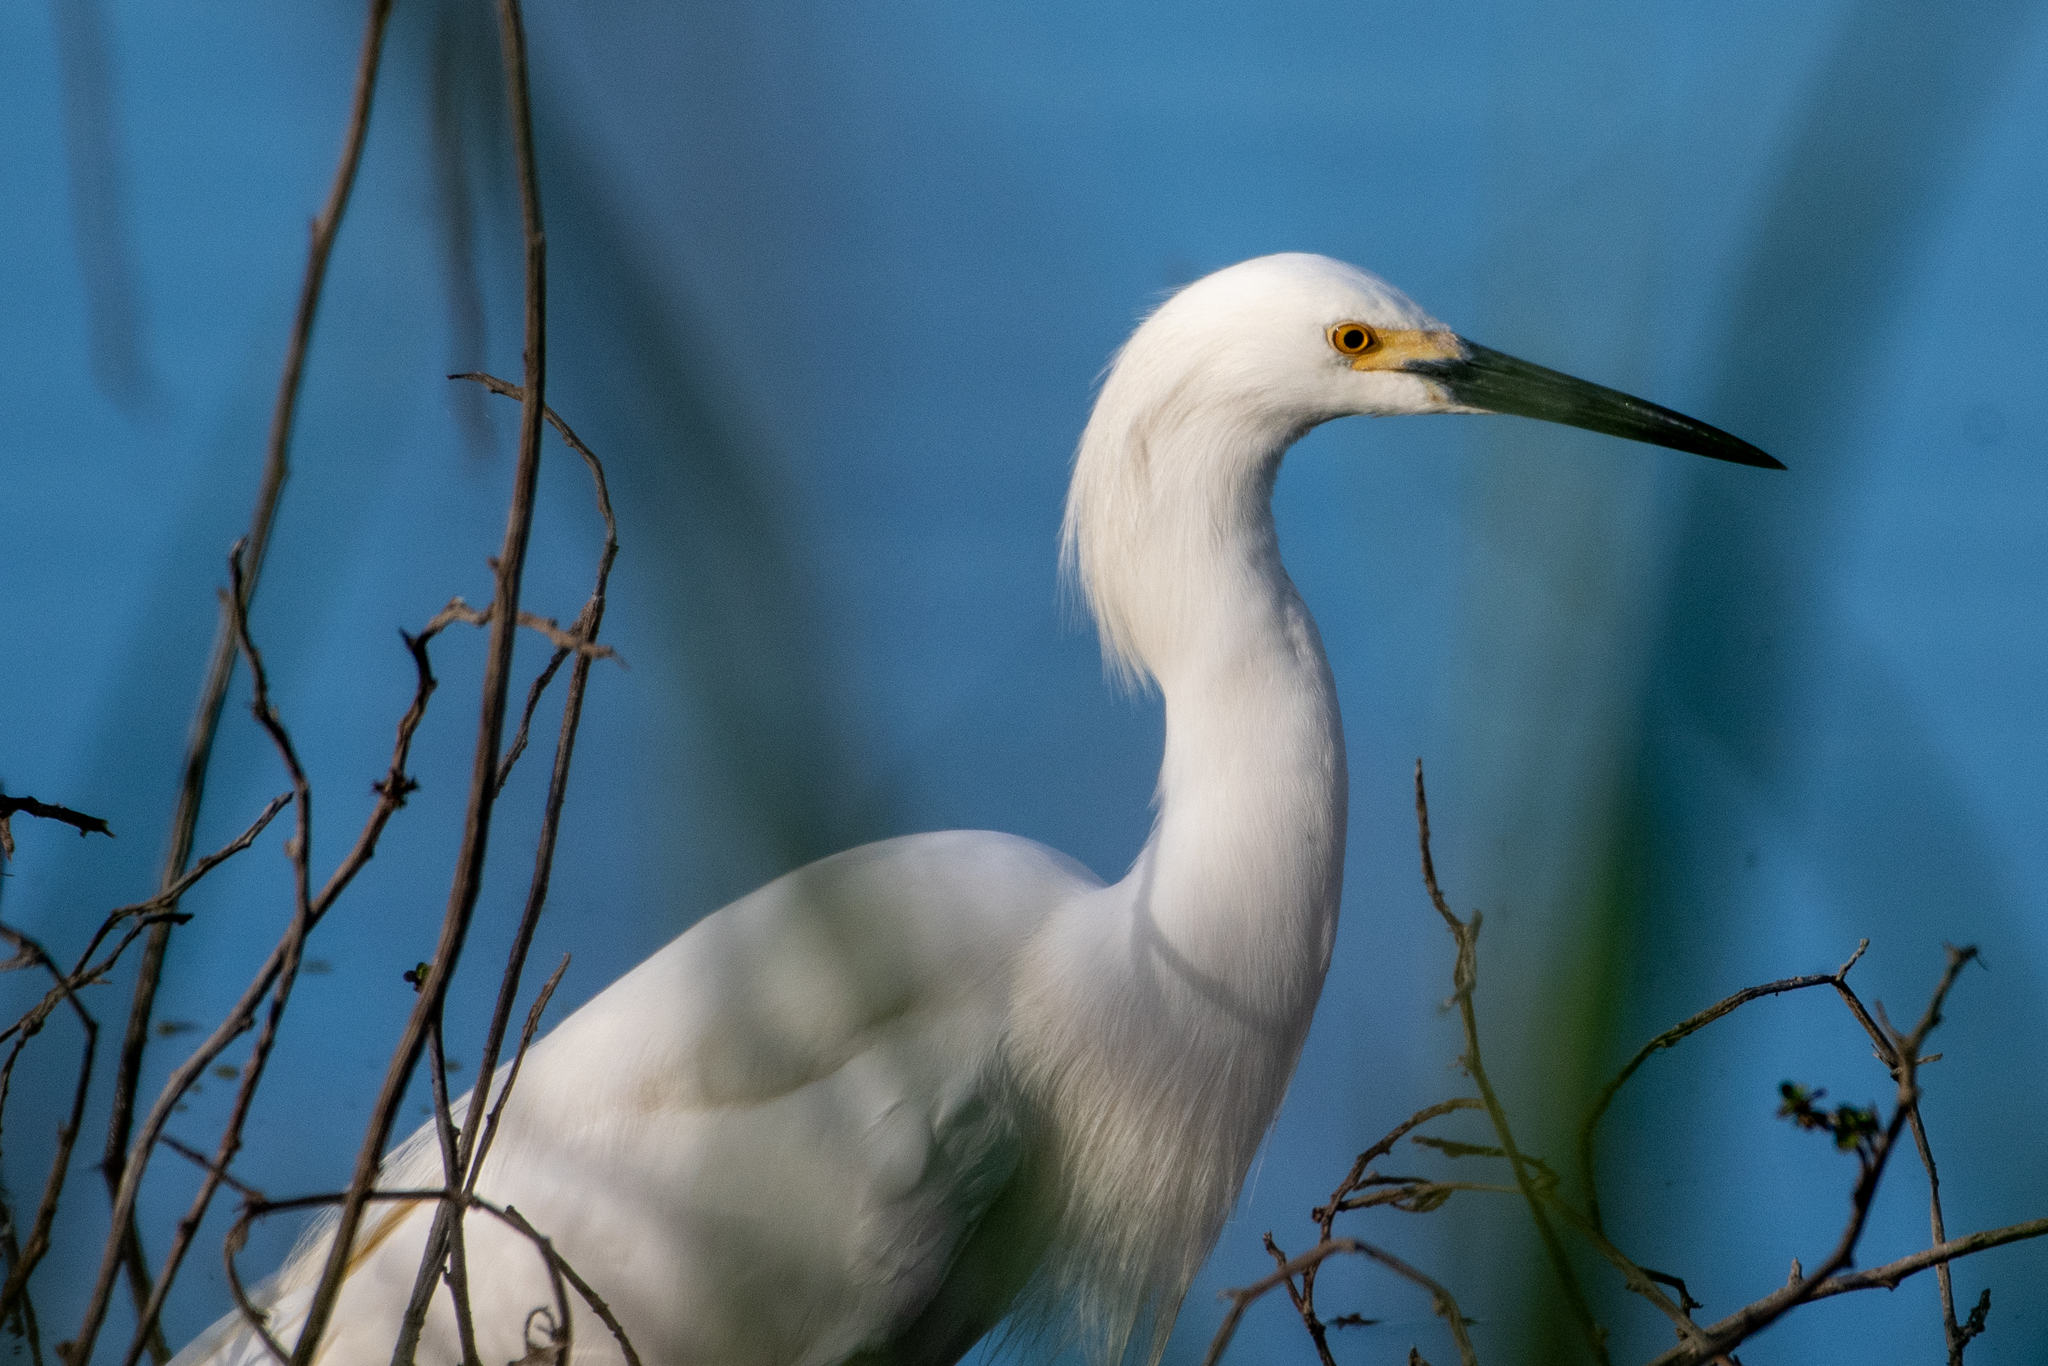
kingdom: Animalia
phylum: Chordata
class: Aves
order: Pelecaniformes
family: Ardeidae
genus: Egretta
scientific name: Egretta thula
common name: Snowy egret
